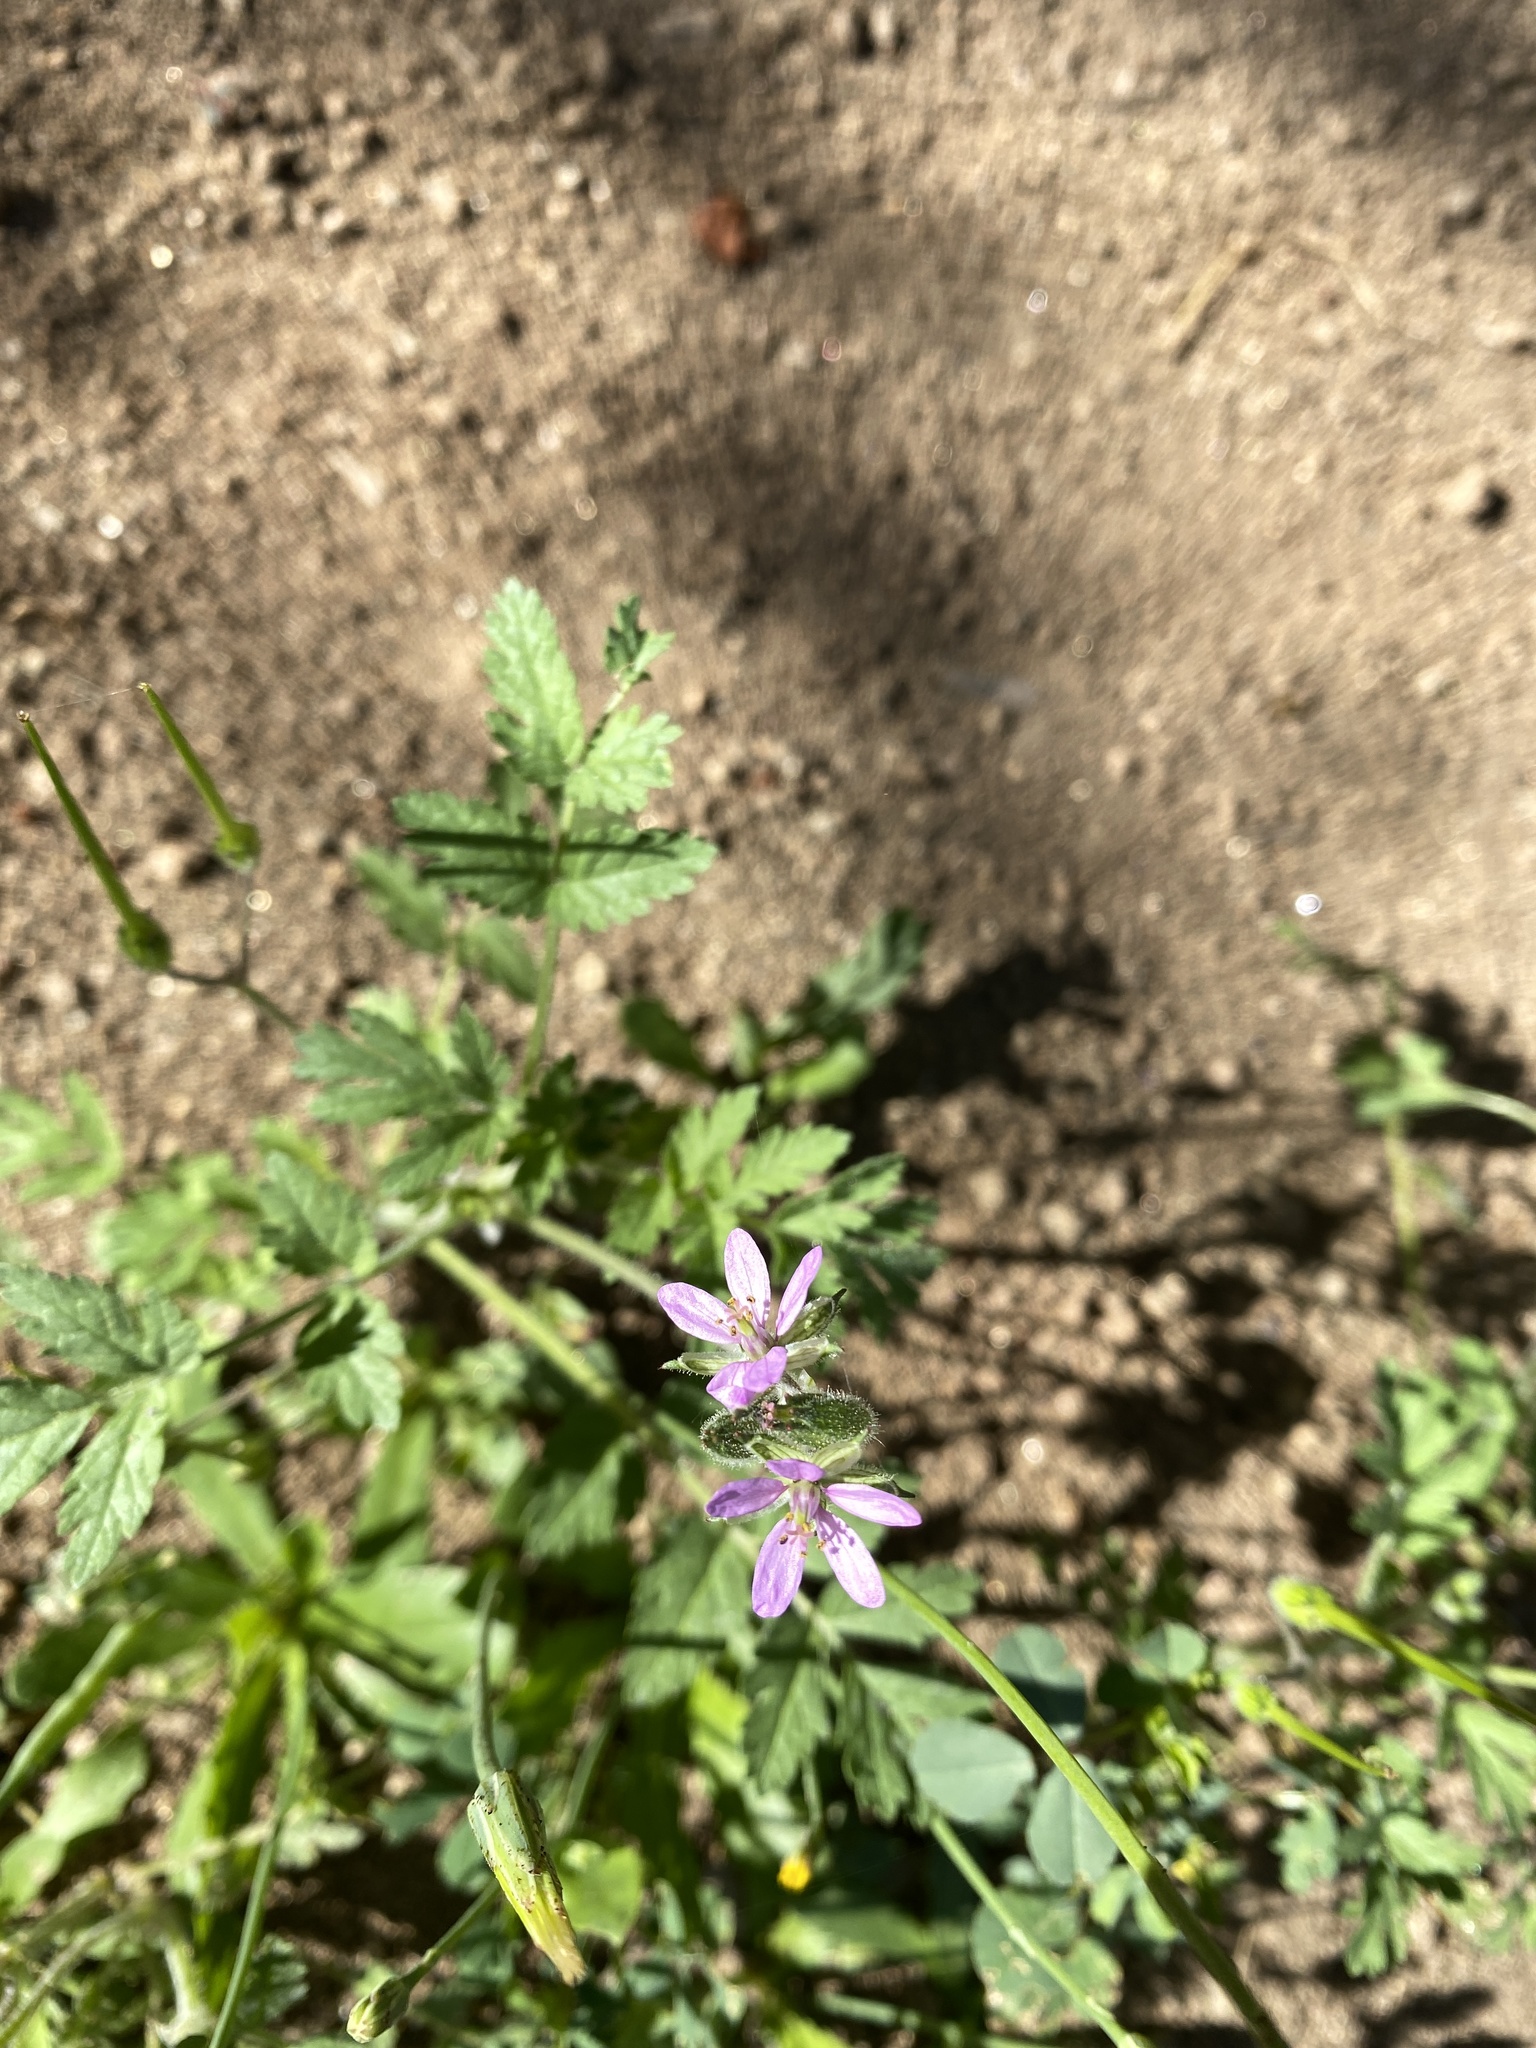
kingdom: Plantae
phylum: Tracheophyta
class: Magnoliopsida
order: Geraniales
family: Geraniaceae
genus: Erodium
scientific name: Erodium moschatum
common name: Musk stork's-bill
